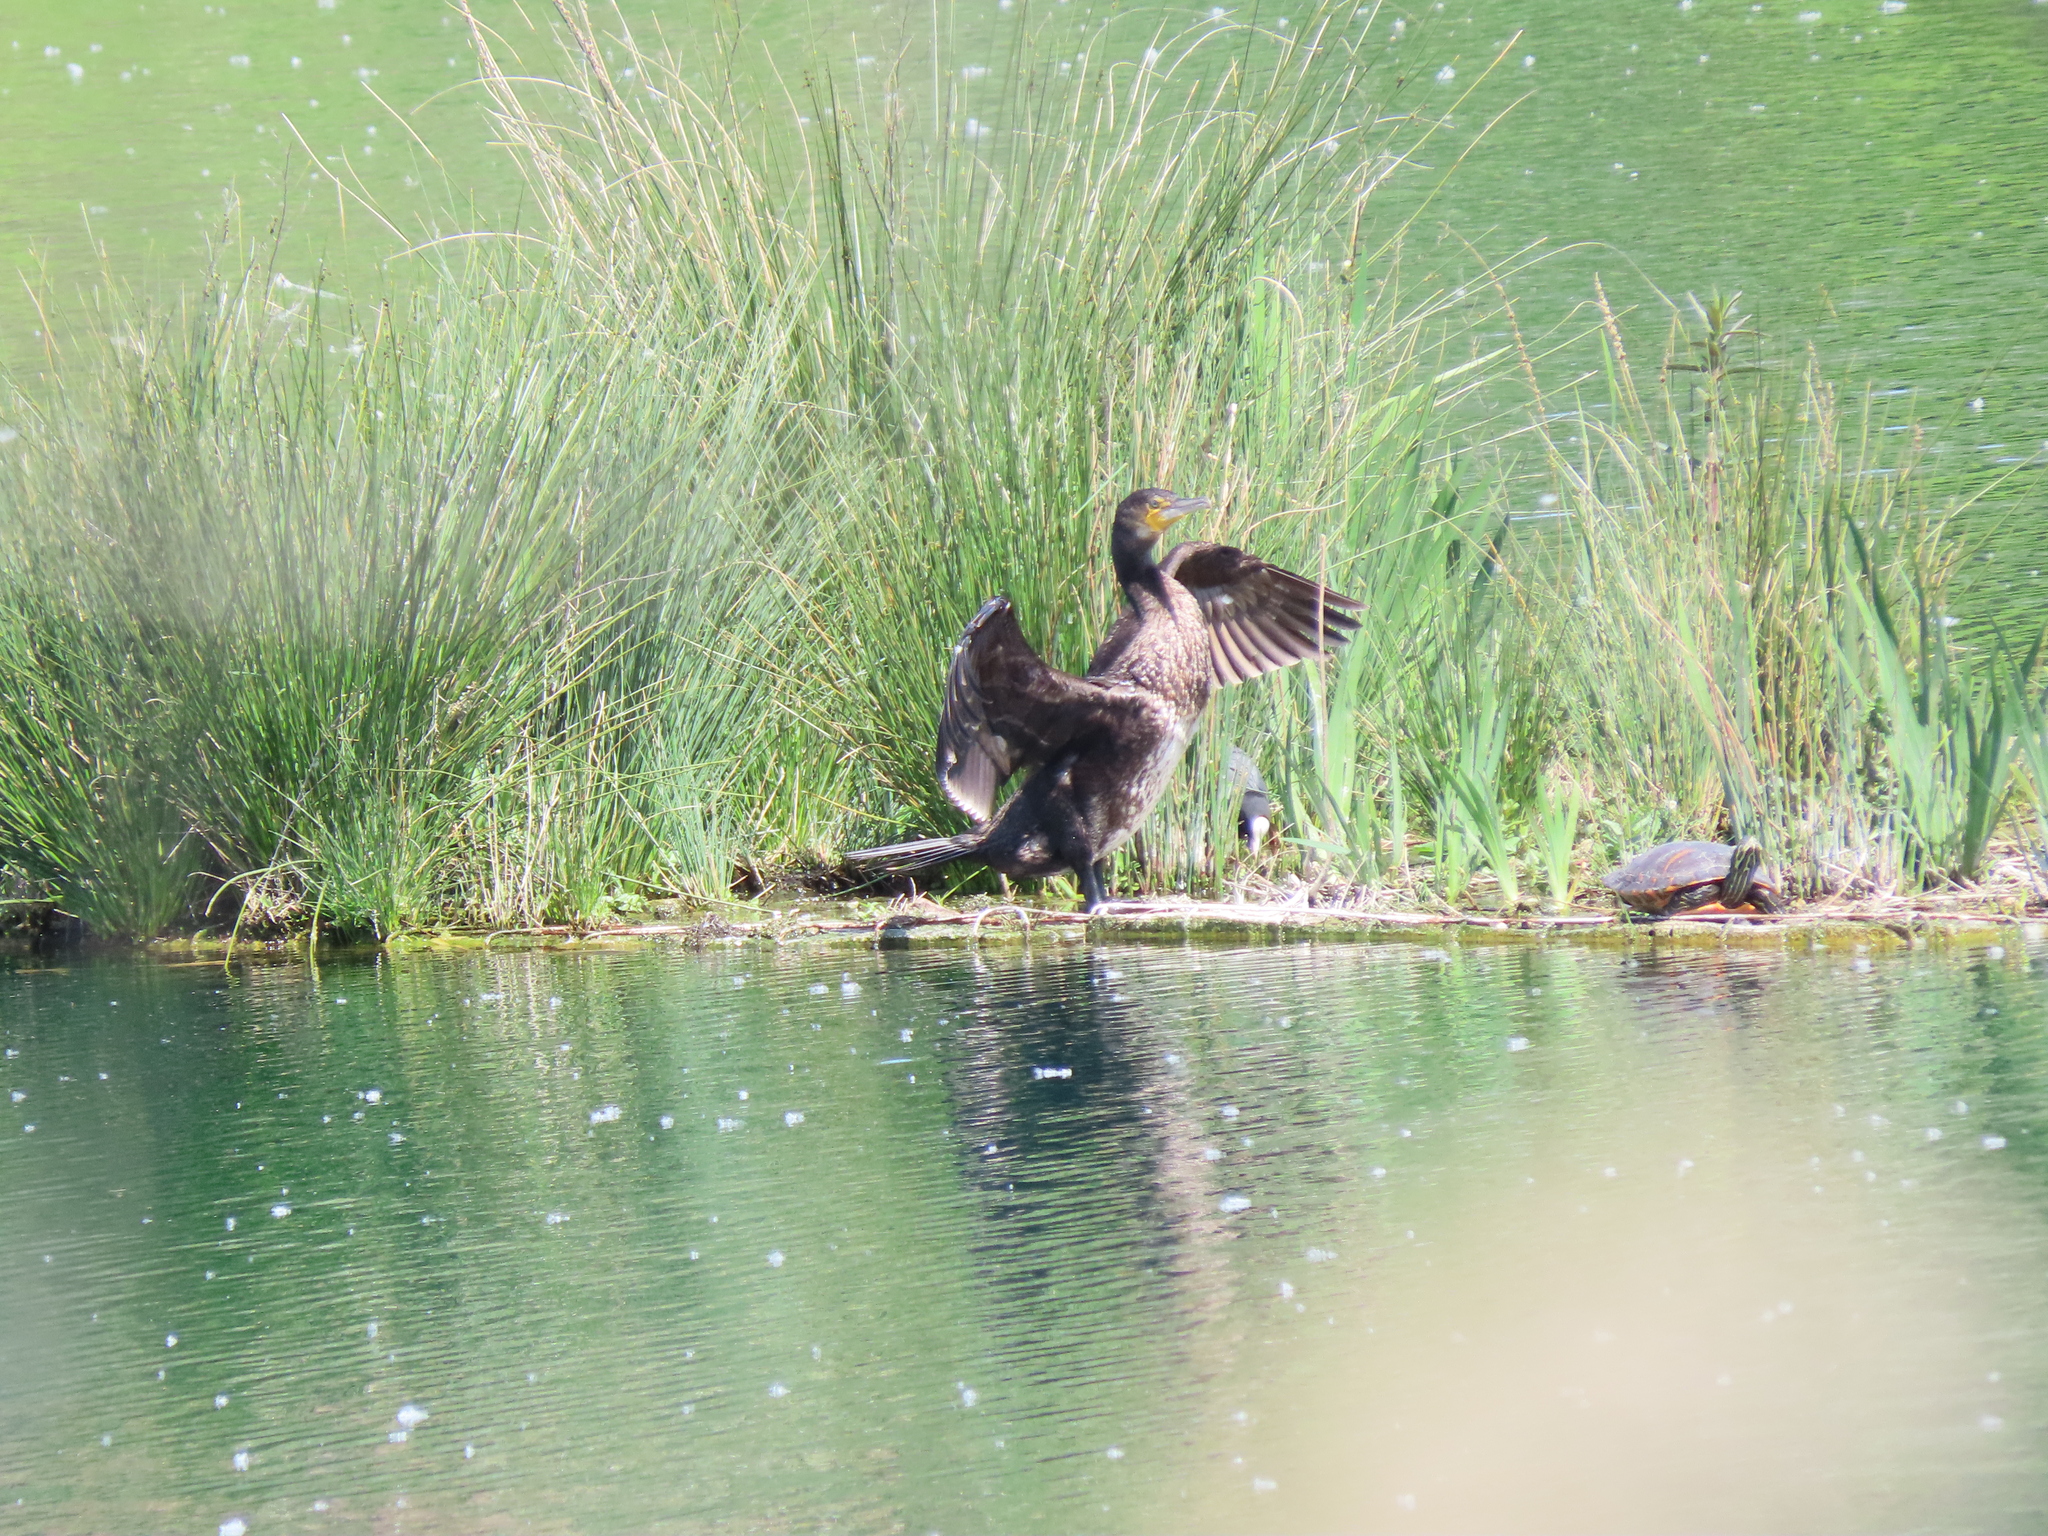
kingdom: Animalia
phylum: Chordata
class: Aves
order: Suliformes
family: Phalacrocoracidae
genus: Phalacrocorax
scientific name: Phalacrocorax carbo
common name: Great cormorant
